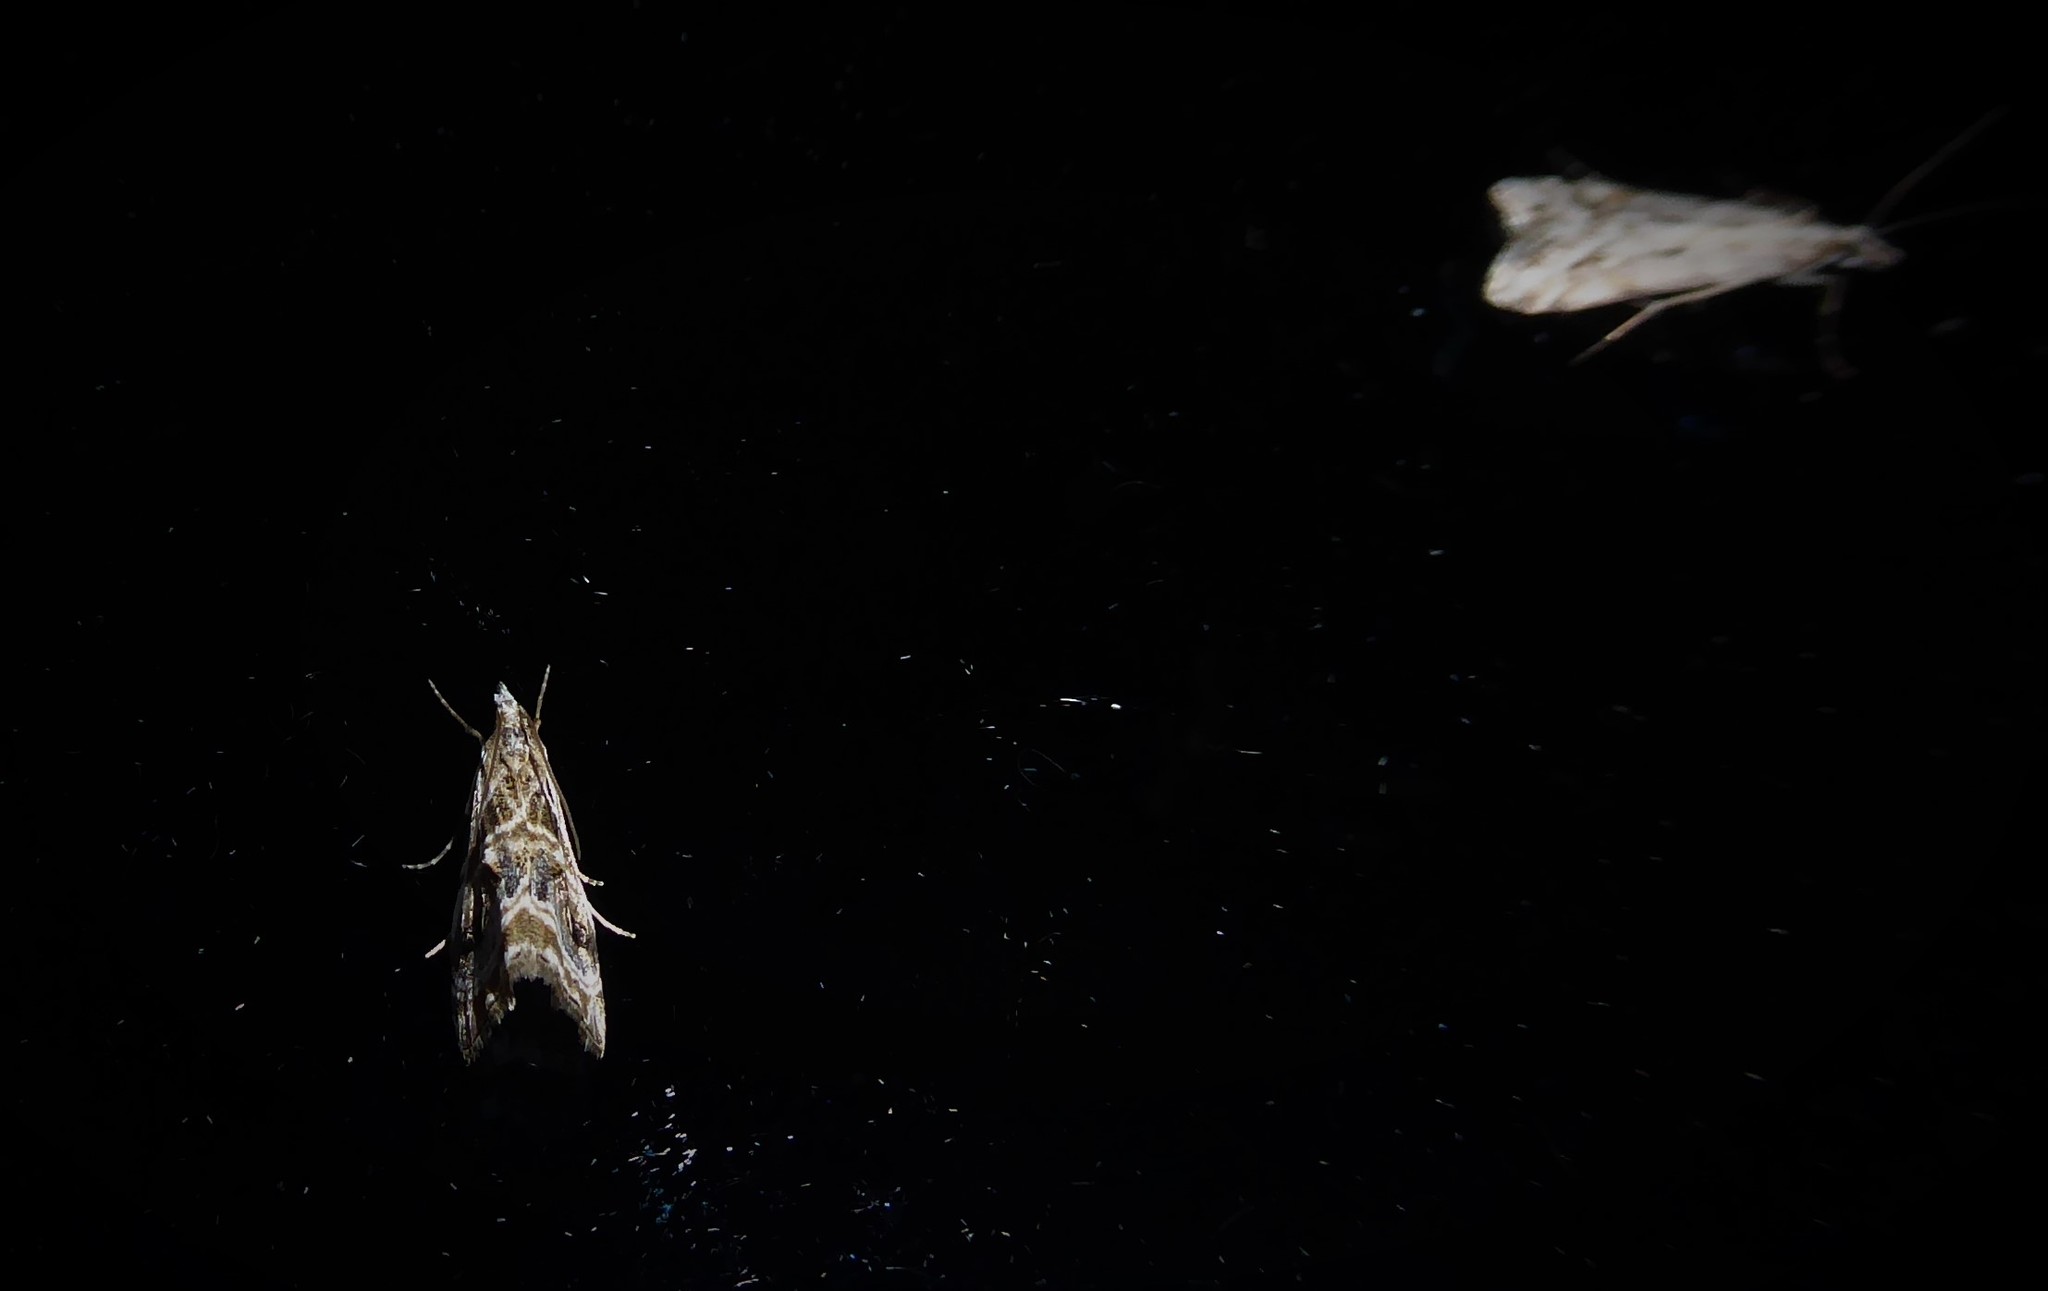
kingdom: Animalia
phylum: Arthropoda
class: Insecta
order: Lepidoptera
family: Crambidae
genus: Gadira
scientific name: Gadira acerella
